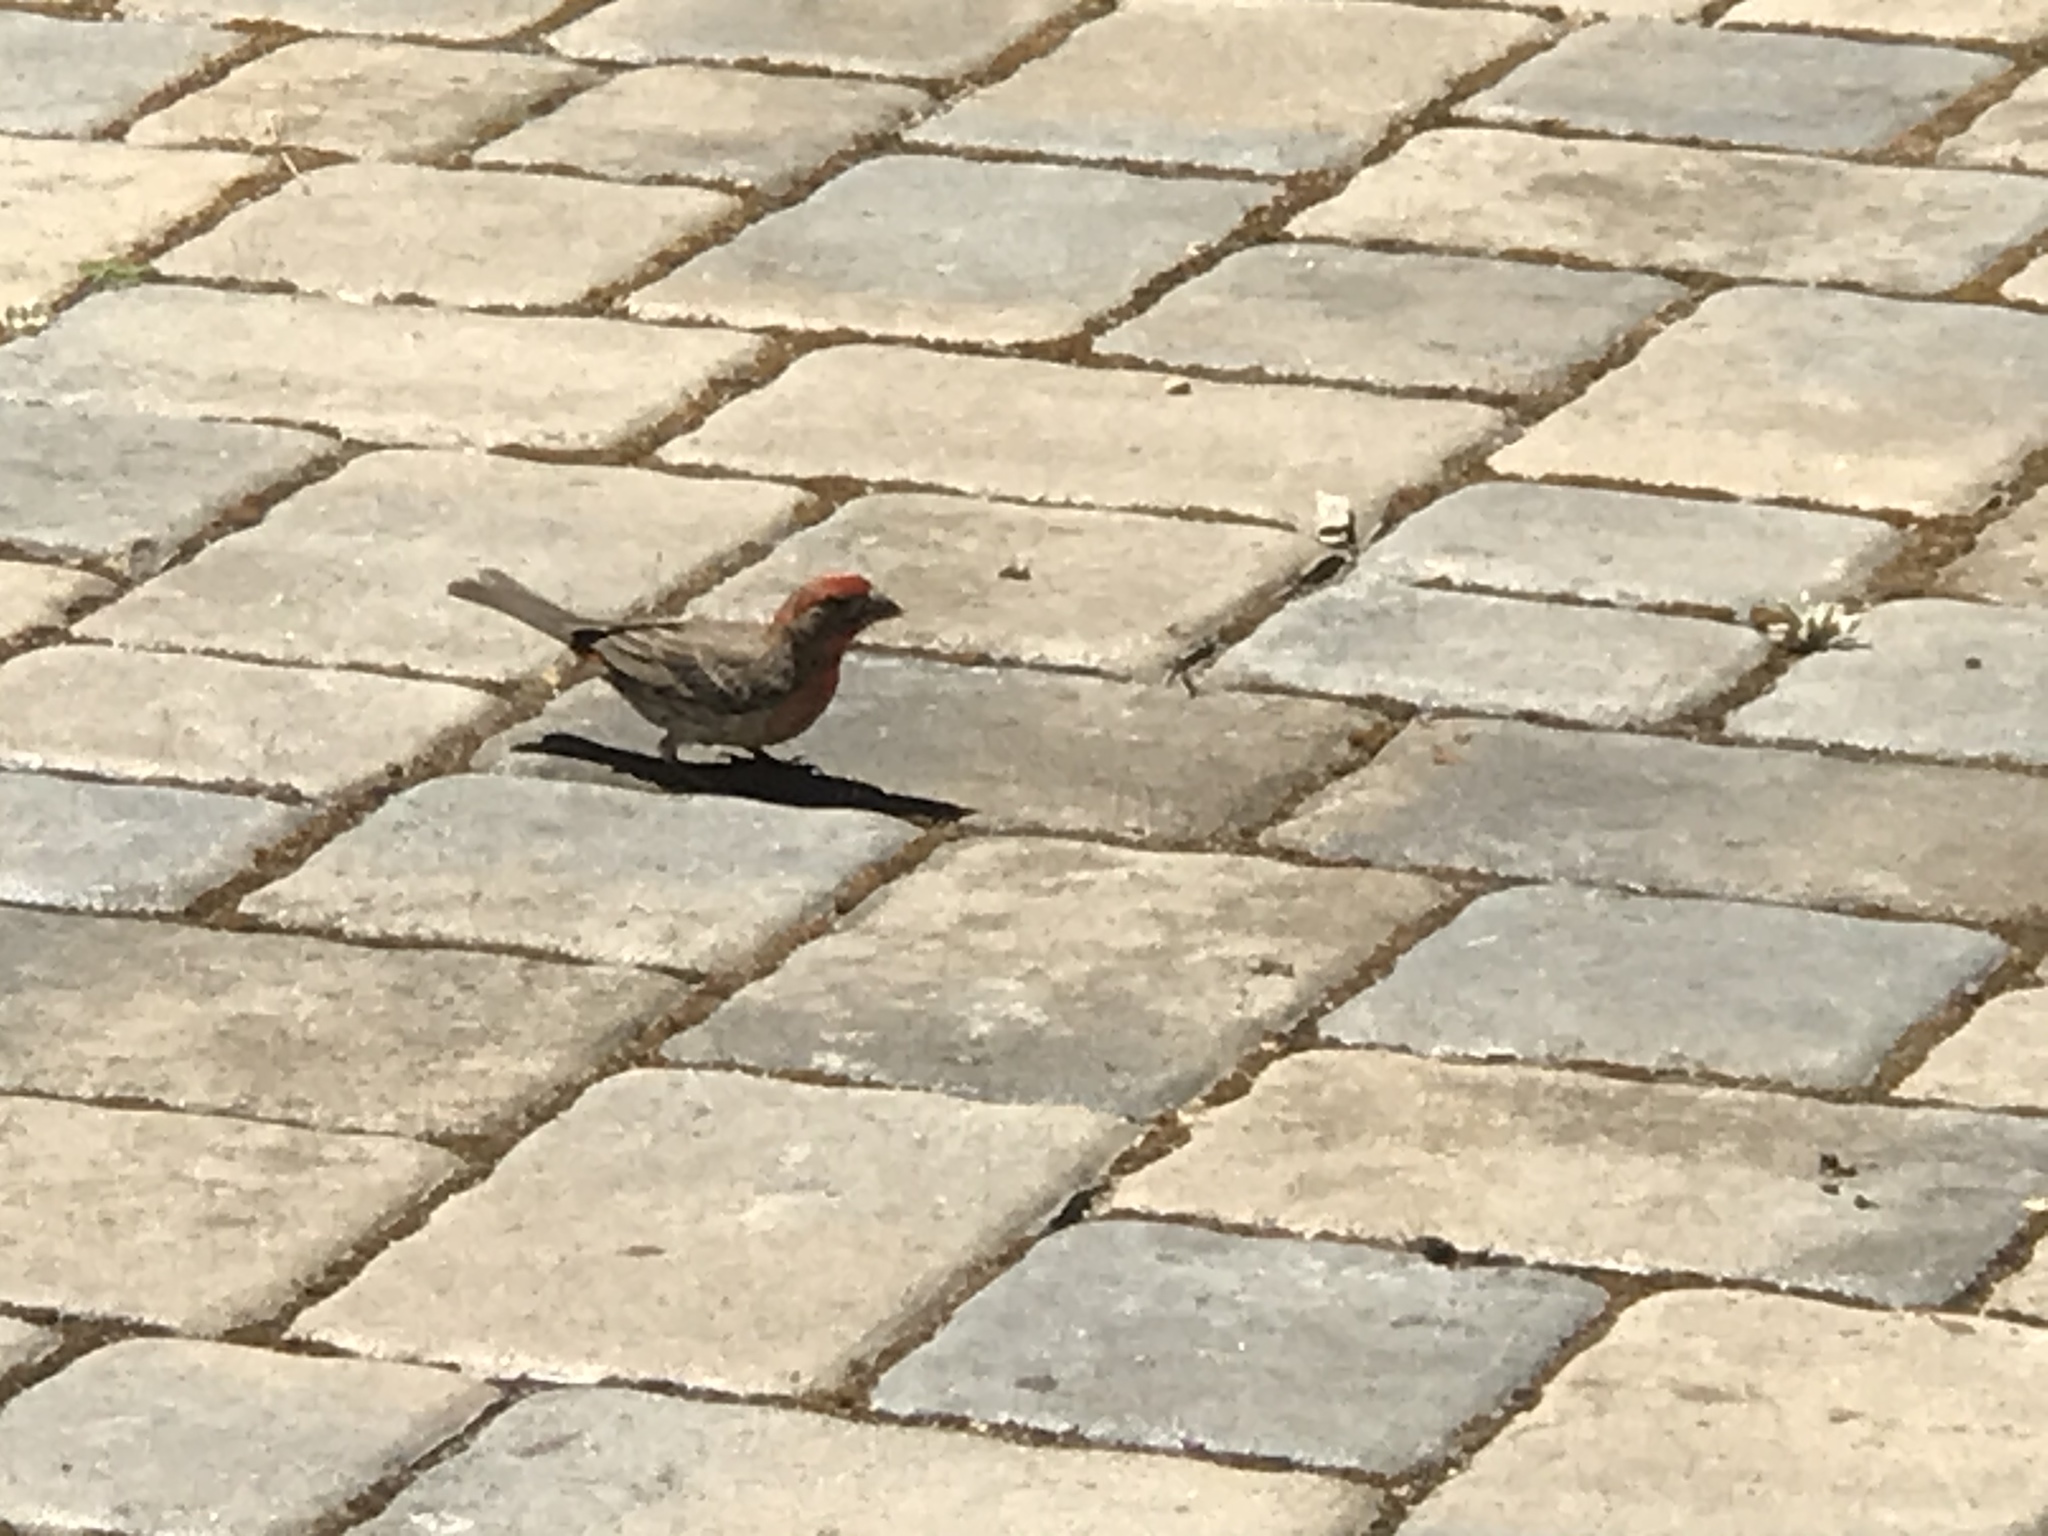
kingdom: Animalia
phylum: Chordata
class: Aves
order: Passeriformes
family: Fringillidae
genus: Haemorhous
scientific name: Haemorhous mexicanus
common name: House finch
